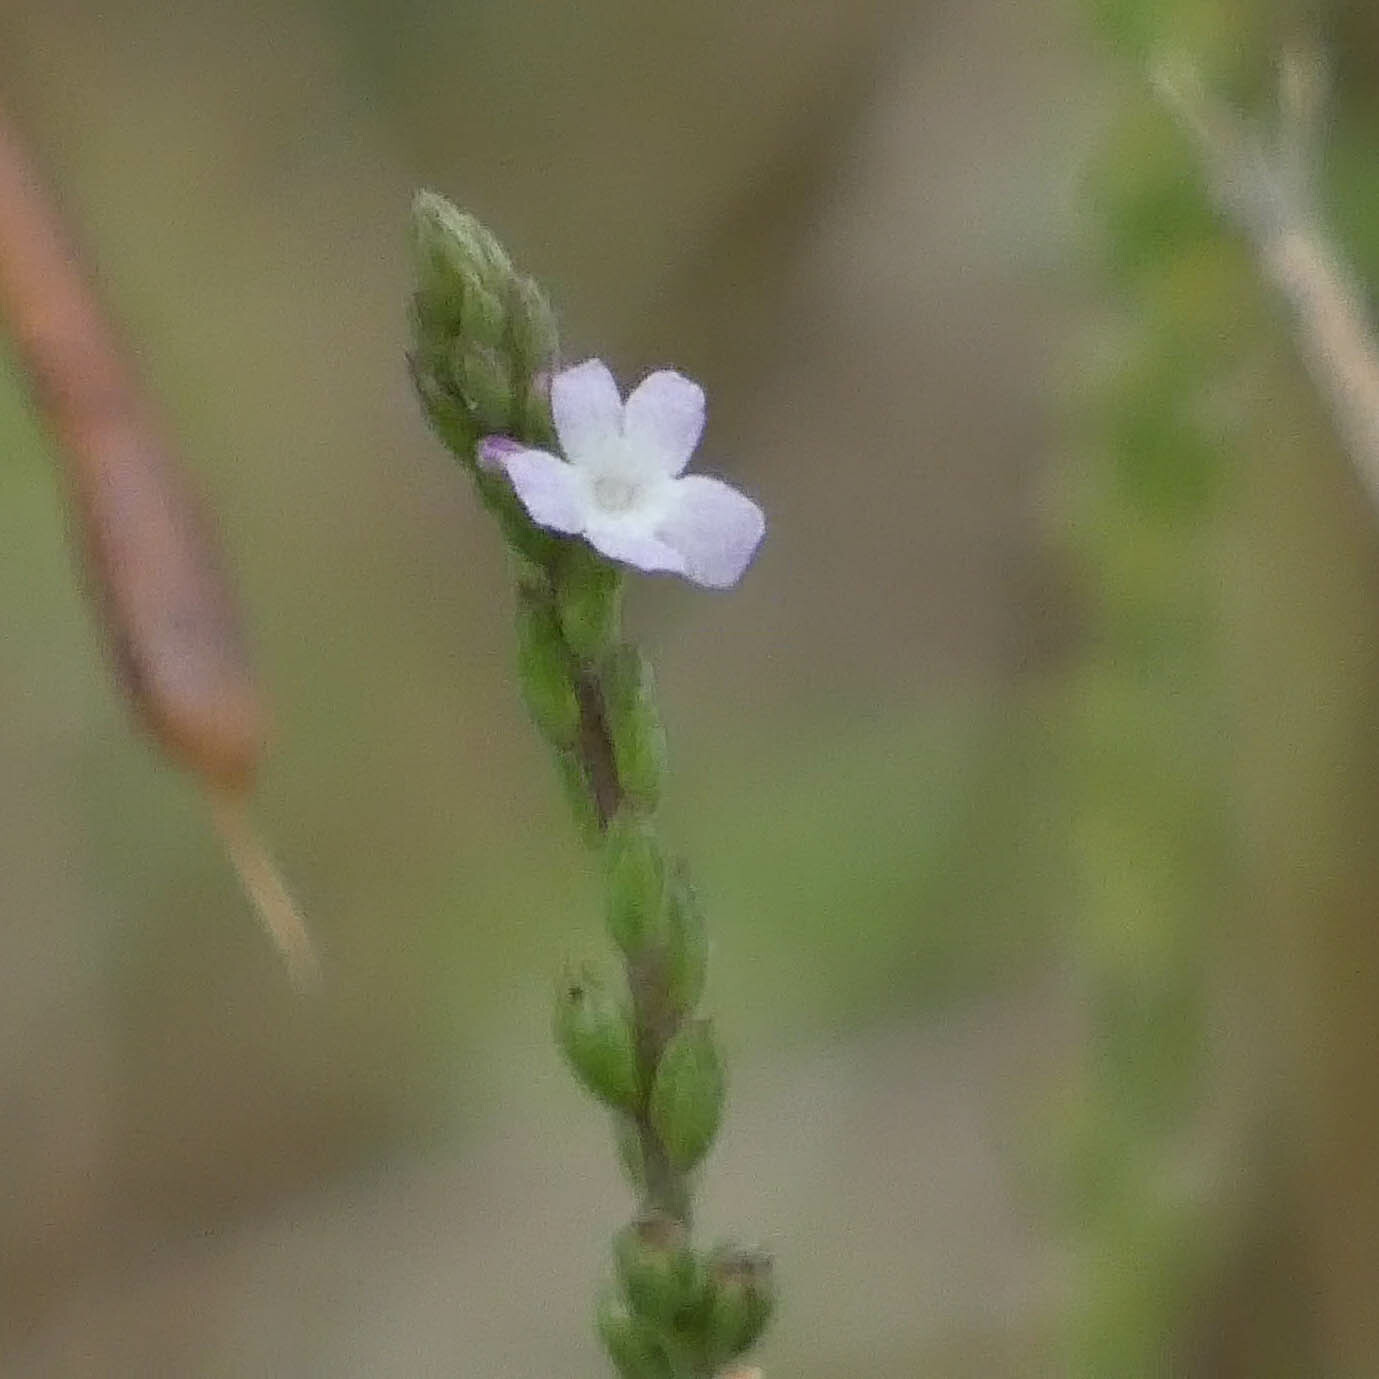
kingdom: Plantae
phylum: Tracheophyta
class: Magnoliopsida
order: Lamiales
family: Verbenaceae
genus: Verbena
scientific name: Verbena officinalis
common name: Vervain
